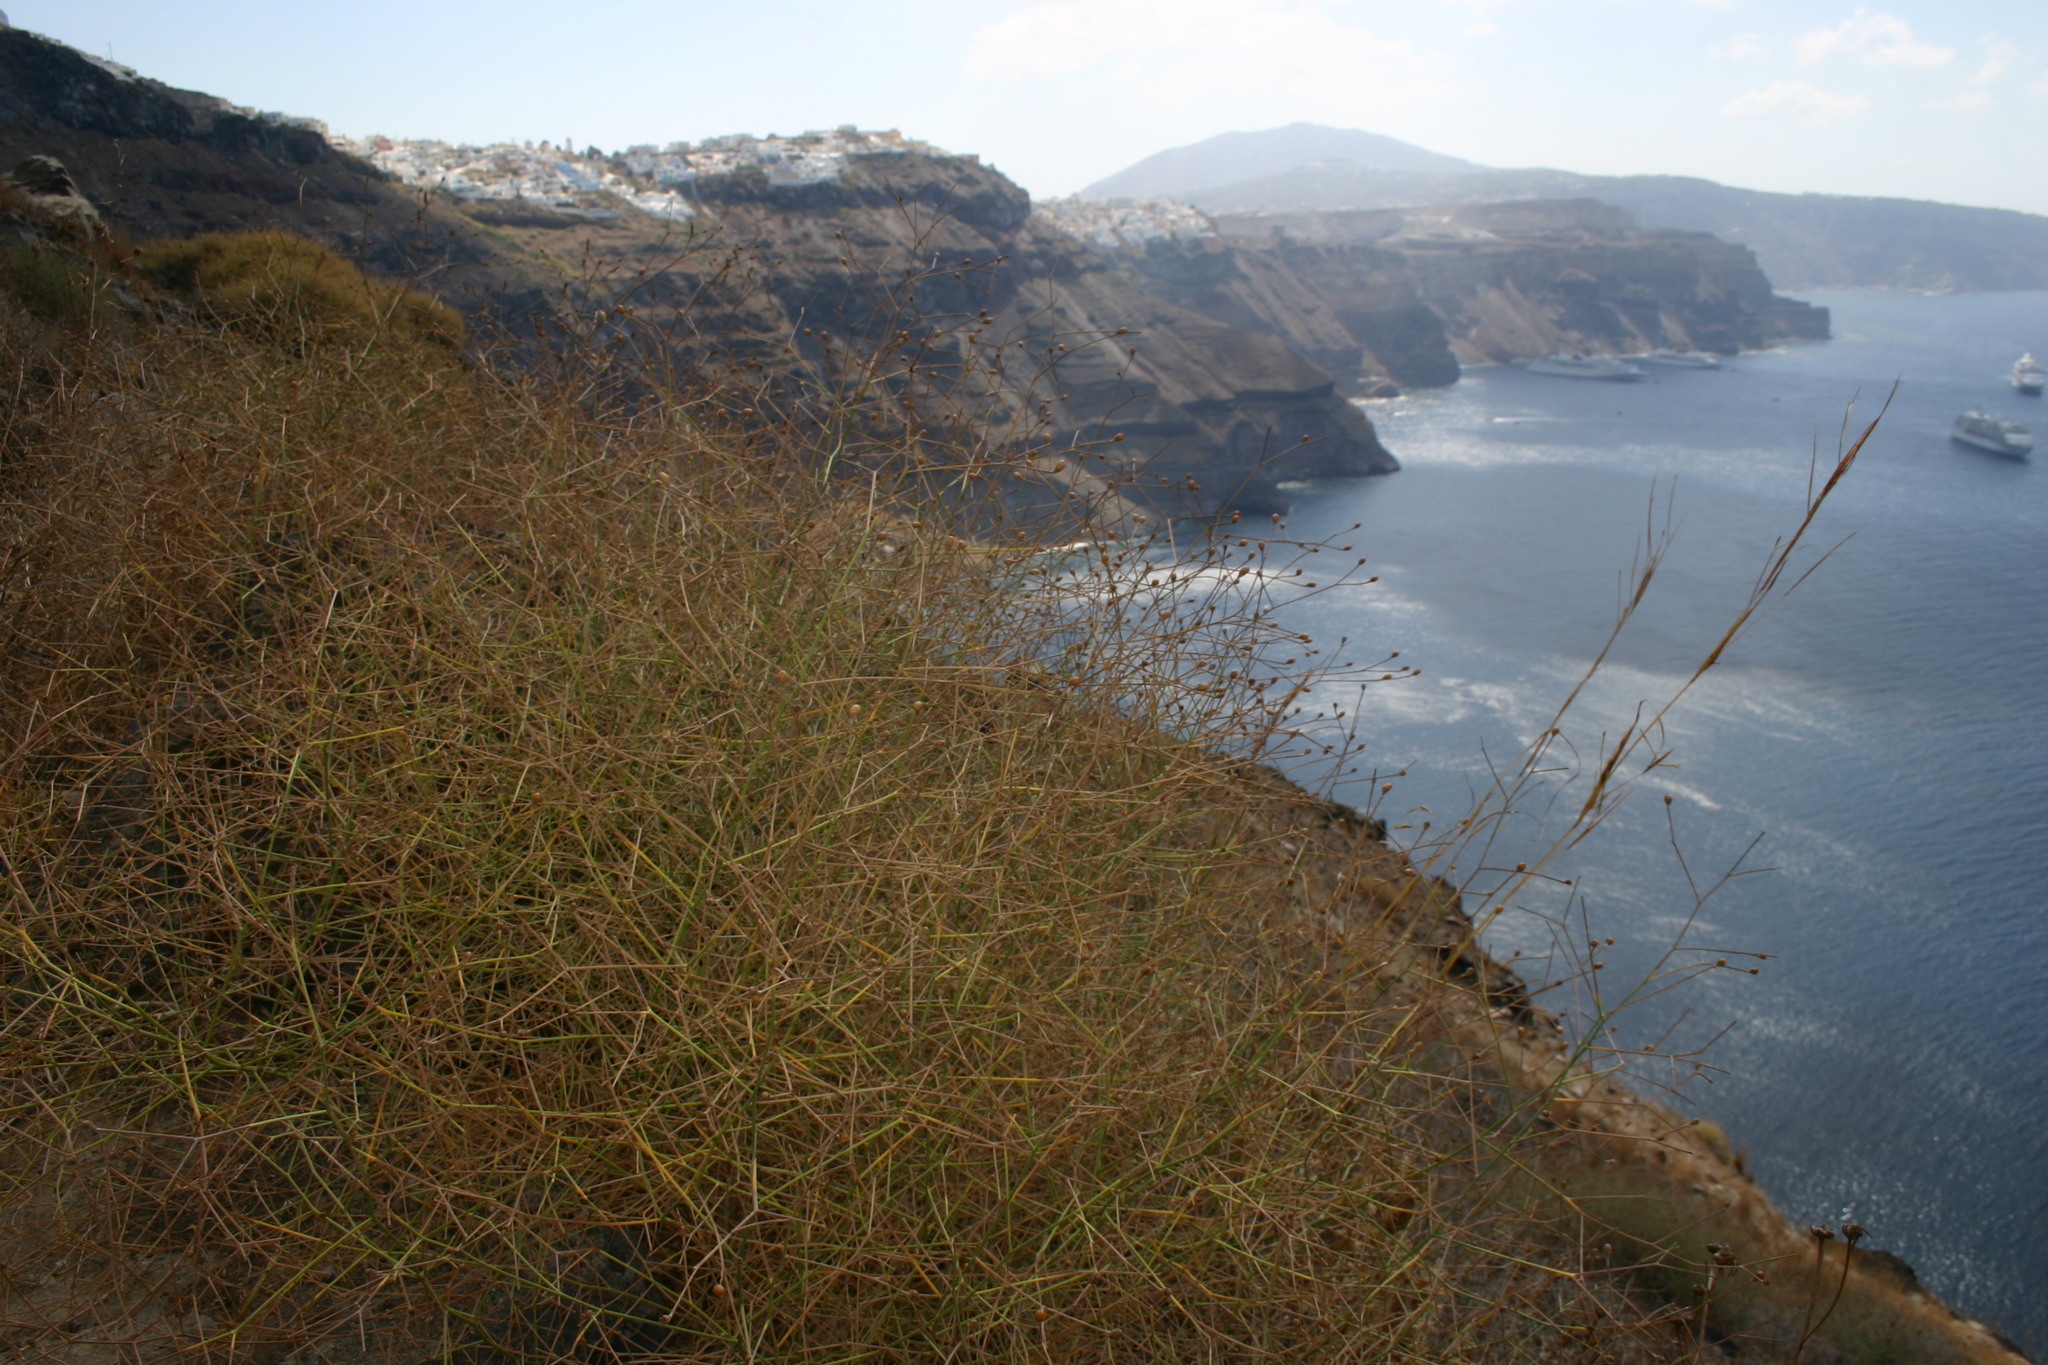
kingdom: Plantae
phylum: Tracheophyta
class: Magnoliopsida
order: Solanales
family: Convolvulaceae
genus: Convolvulus
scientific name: Convolvulus dorycnium
